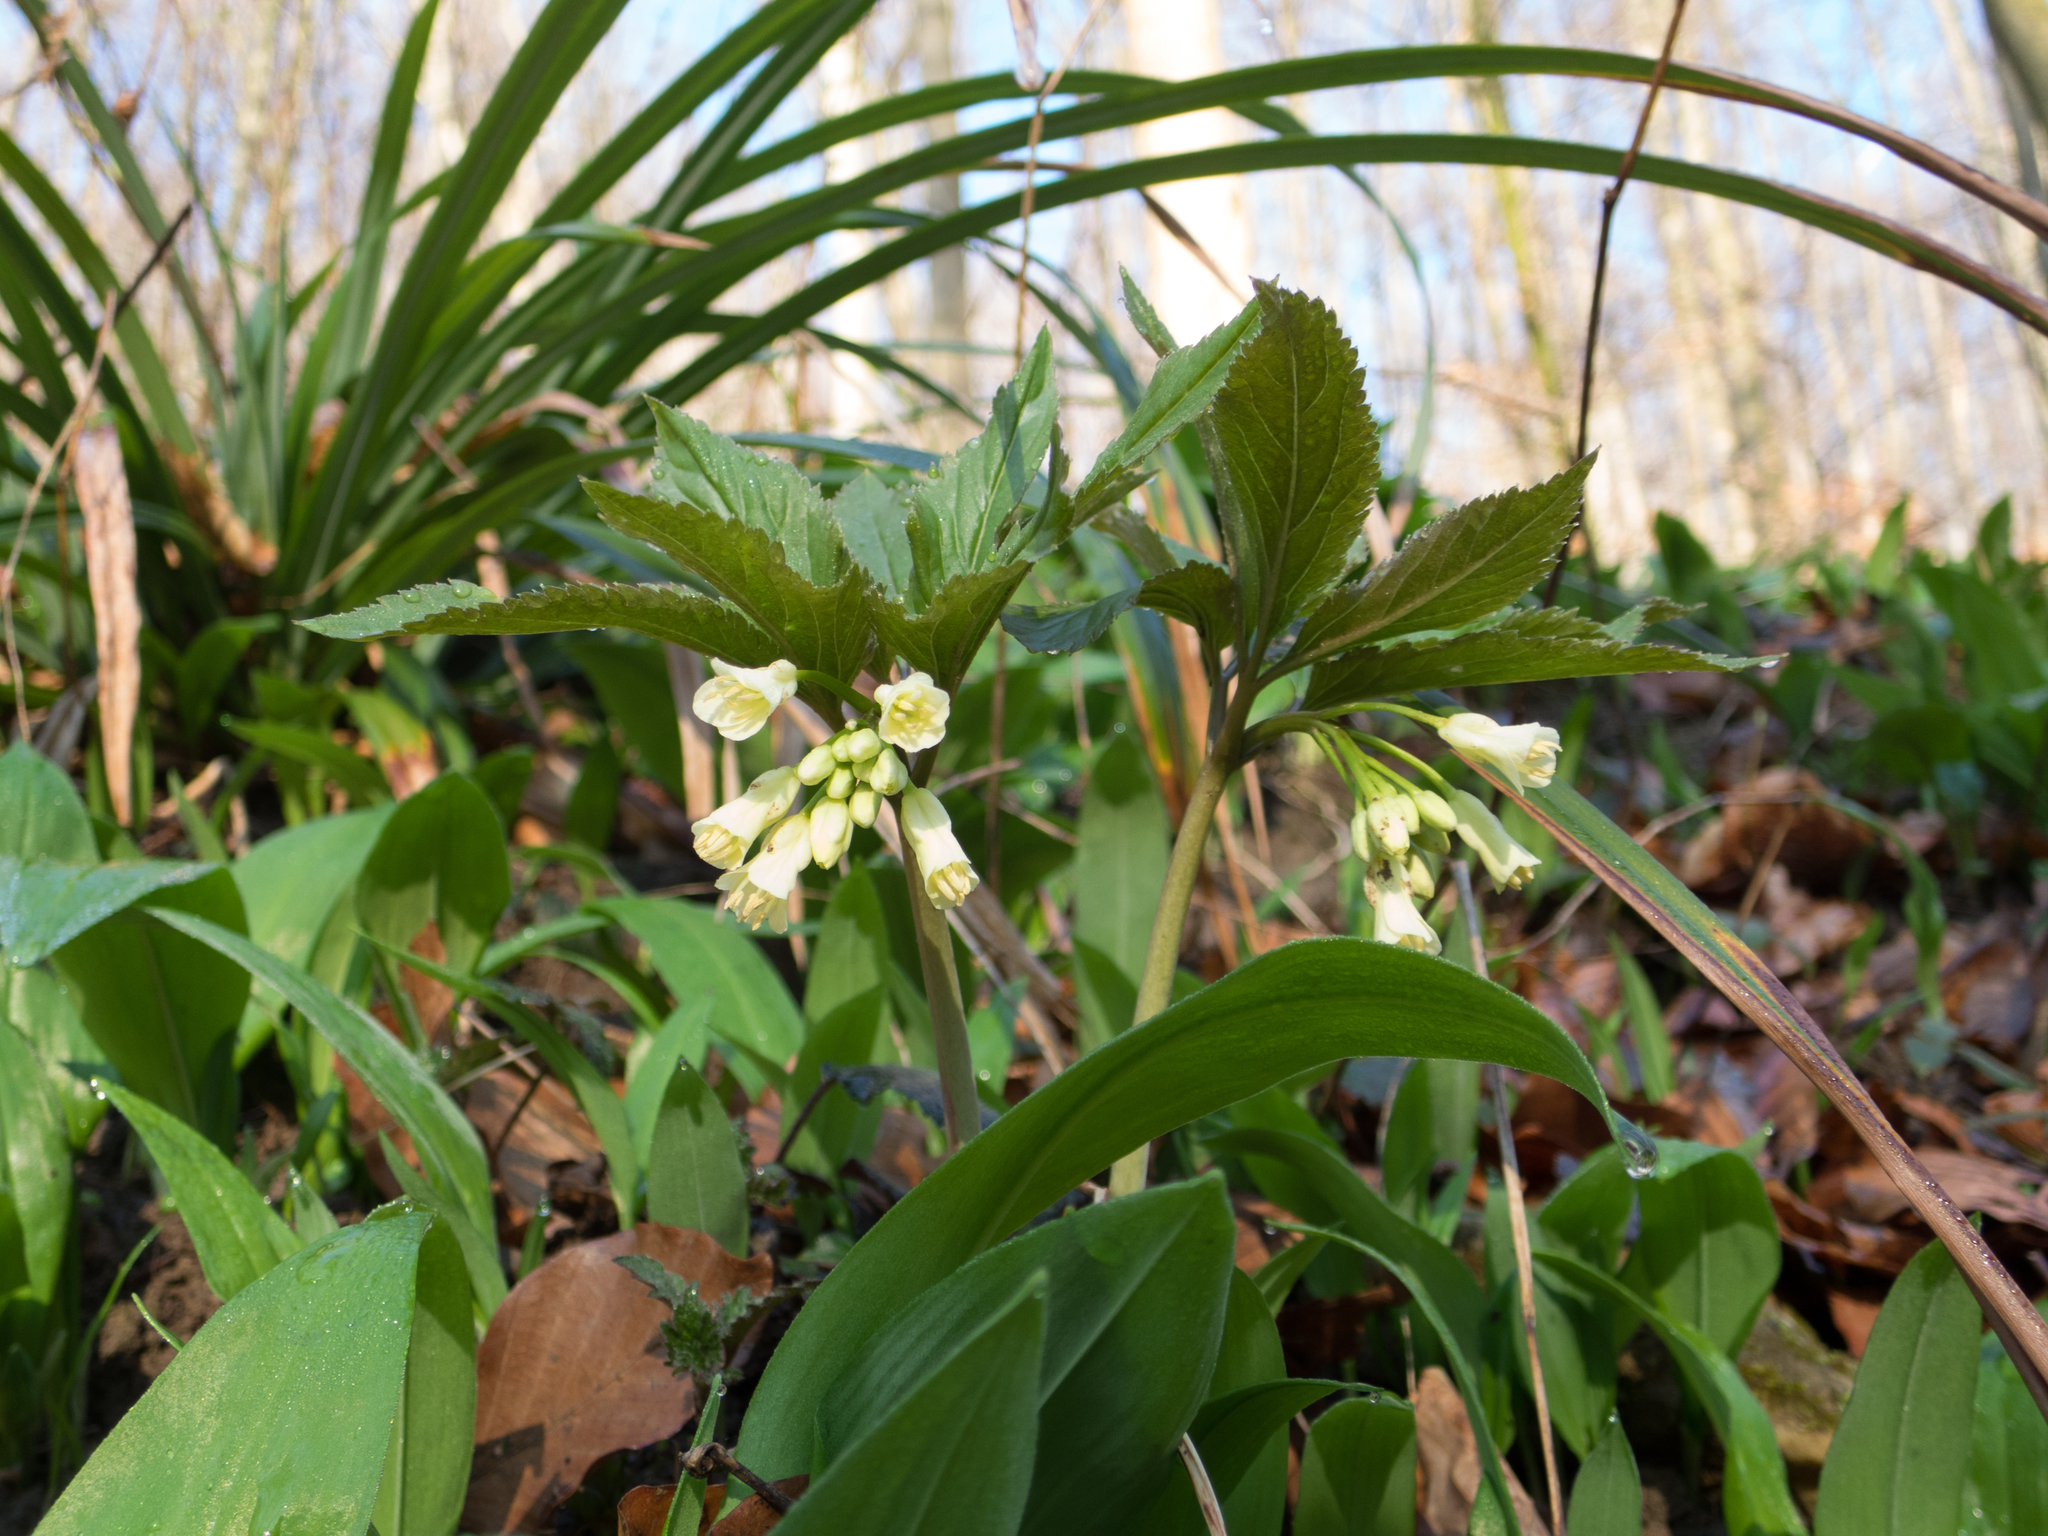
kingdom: Plantae
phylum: Tracheophyta
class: Magnoliopsida
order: Brassicales
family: Brassicaceae
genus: Cardamine
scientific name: Cardamine enneaphyllos
